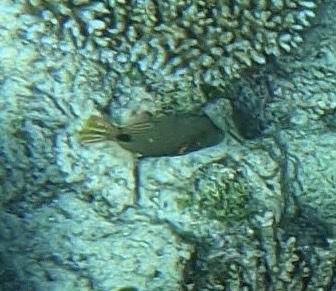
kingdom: Animalia
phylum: Chordata
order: Tetraodontiformes
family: Balistidae
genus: Balistapus
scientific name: Balistapus undulatus
